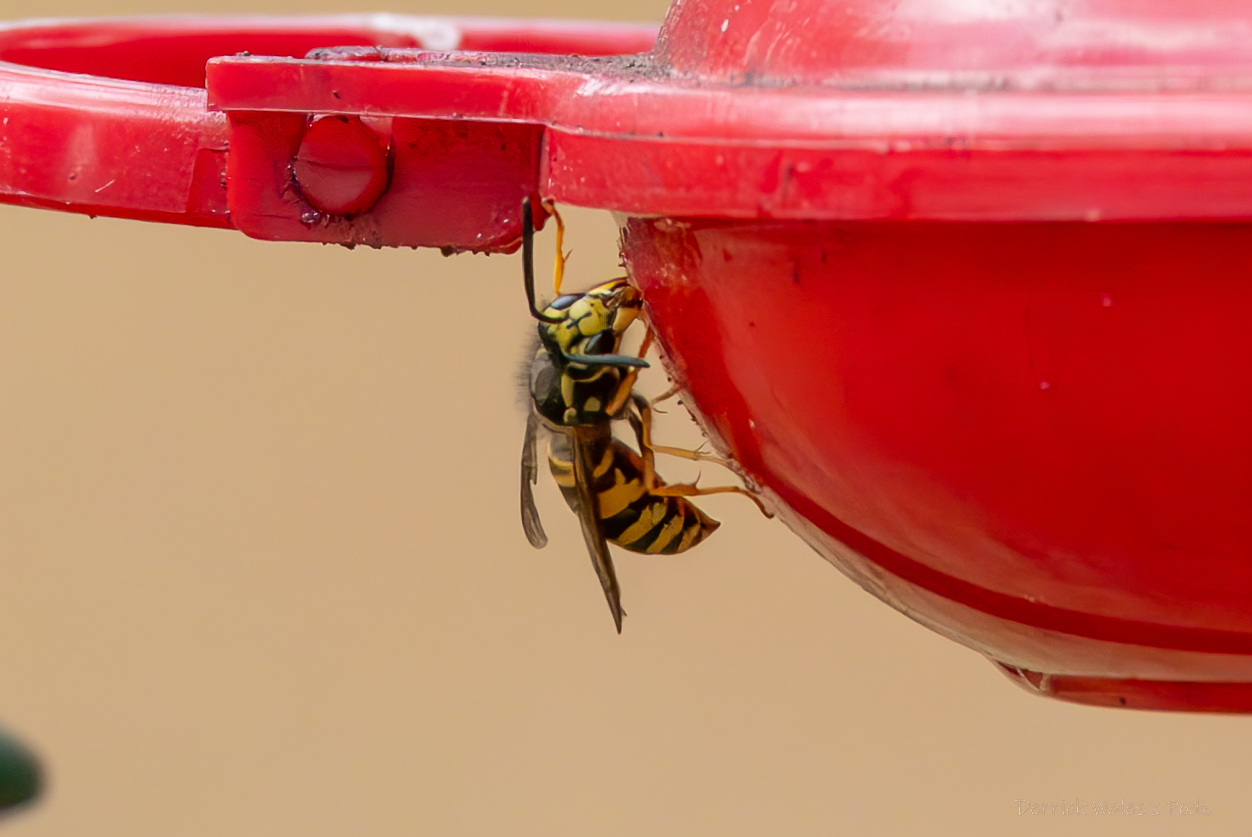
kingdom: Animalia
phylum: Arthropoda
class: Insecta
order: Hymenoptera
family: Vespidae
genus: Vespula
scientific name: Vespula maculifrons
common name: Eastern yellowjacket
